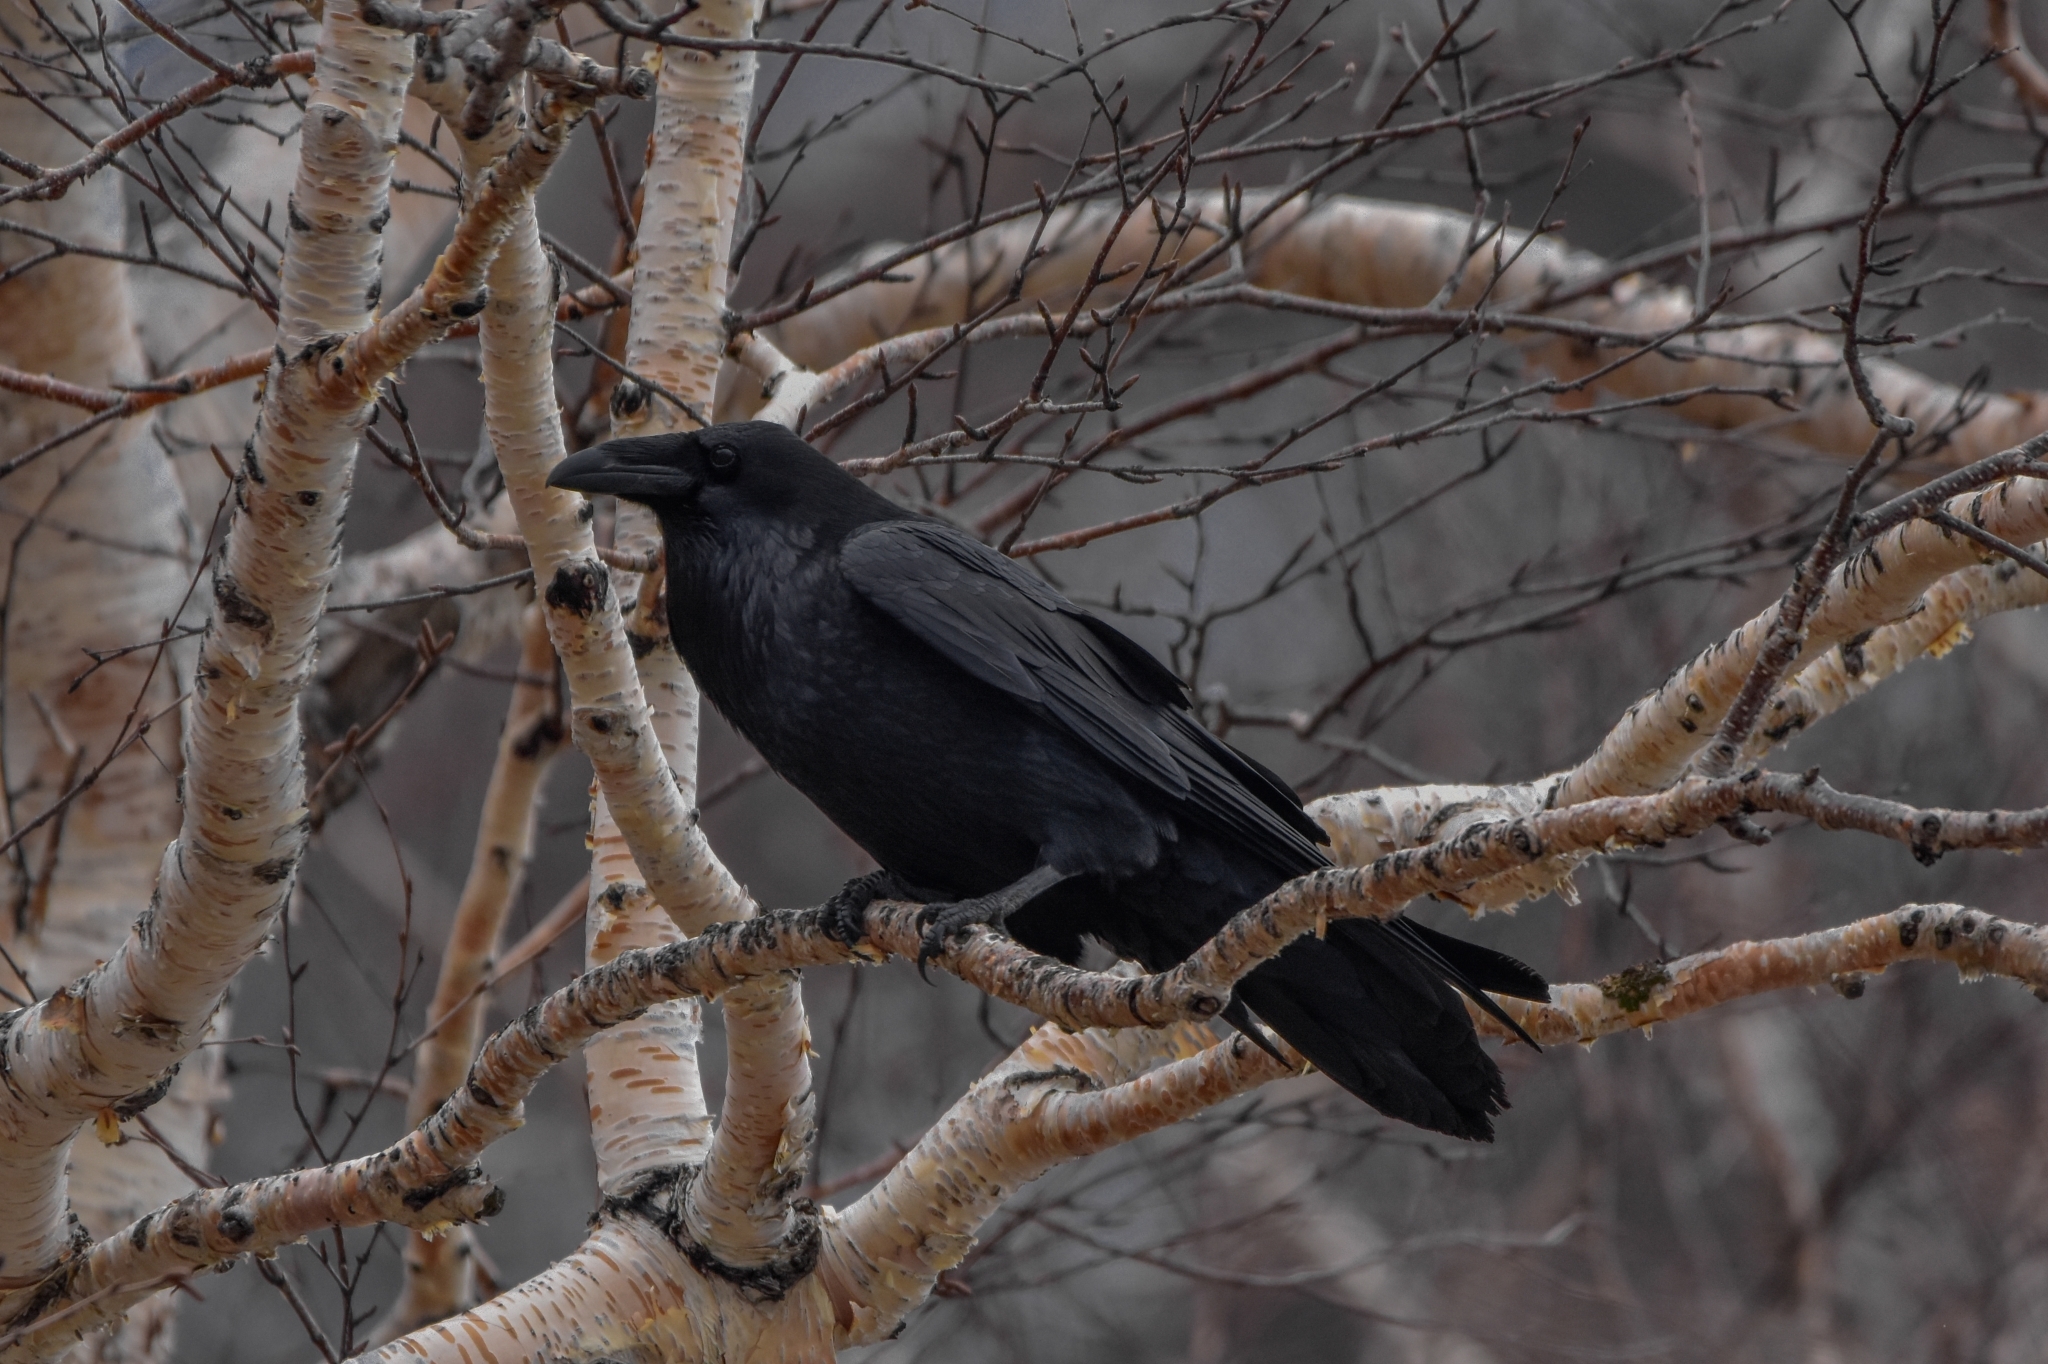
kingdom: Animalia
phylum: Chordata
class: Aves
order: Passeriformes
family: Corvidae
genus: Corvus
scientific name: Corvus corax
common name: Common raven
